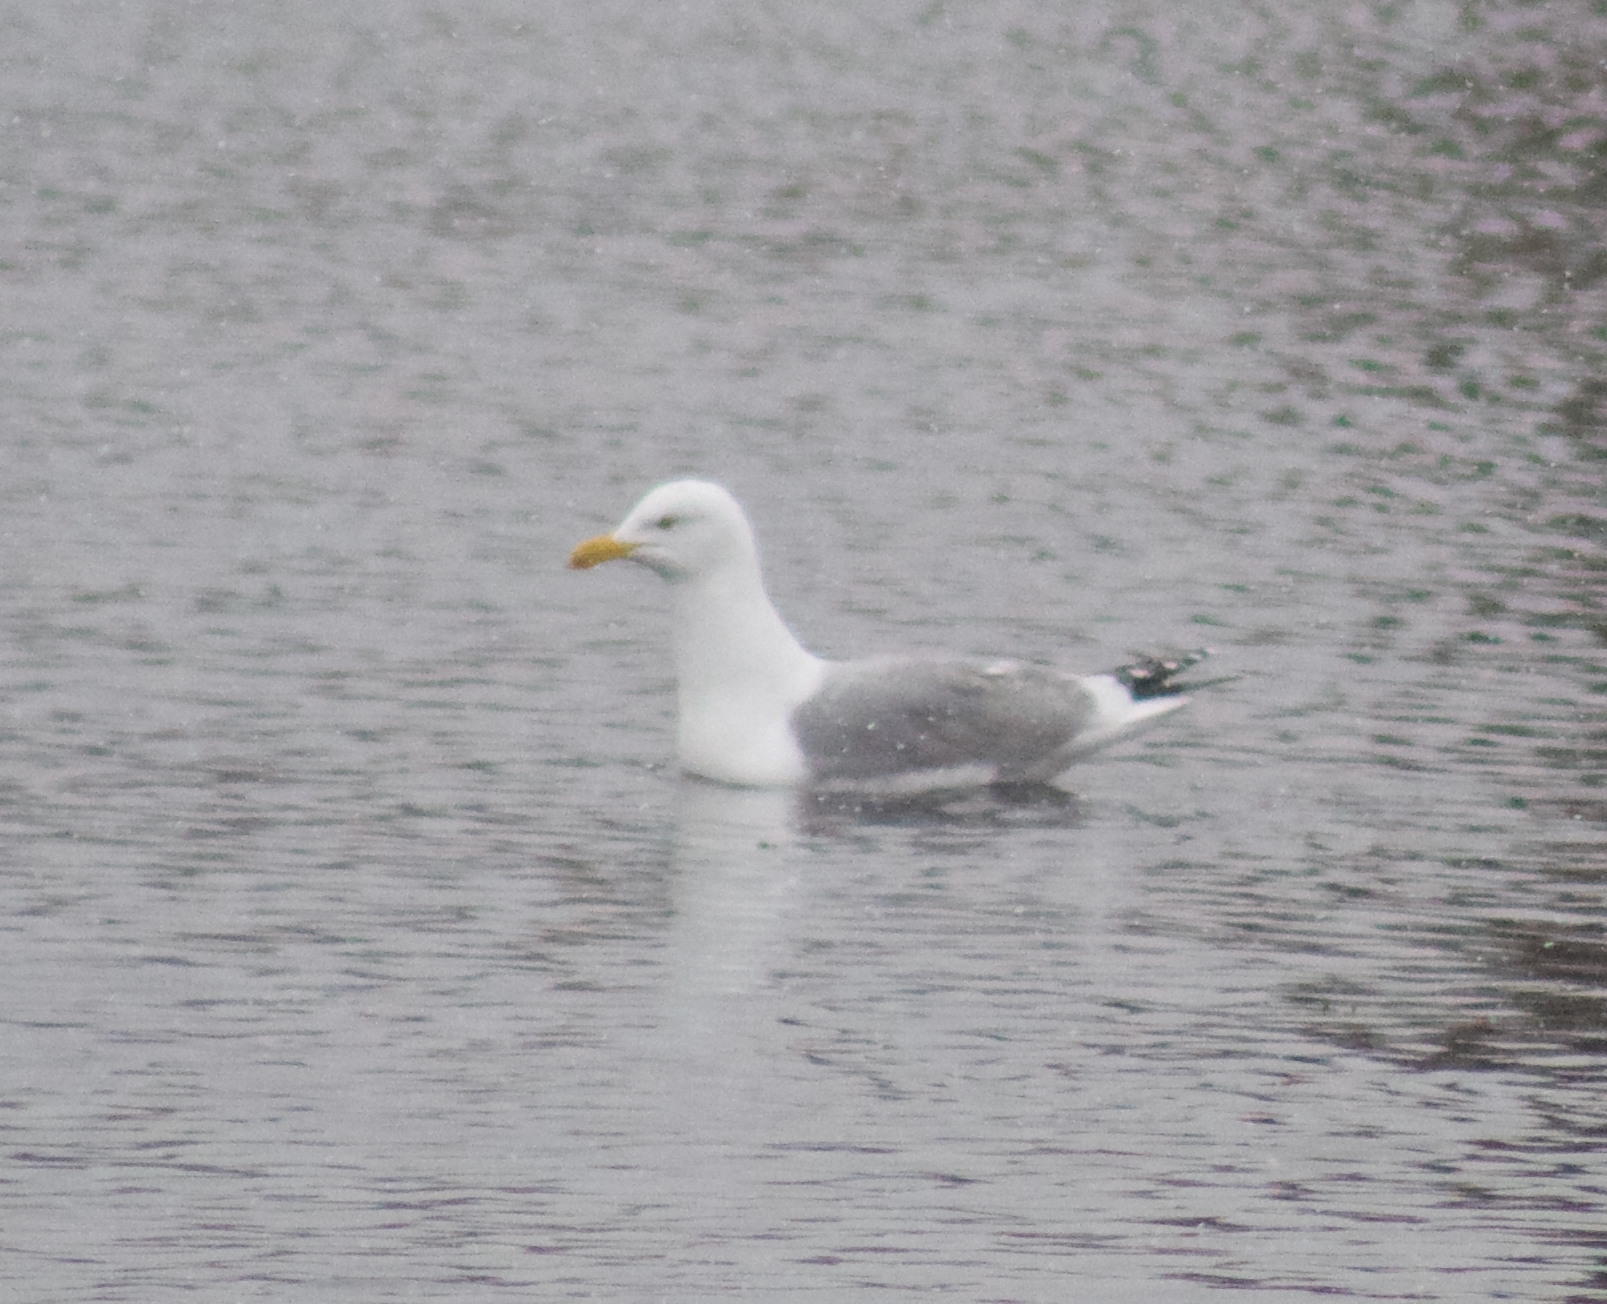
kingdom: Animalia
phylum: Chordata
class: Aves
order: Charadriiformes
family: Laridae
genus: Larus
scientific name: Larus argentatus
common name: Herring gull
